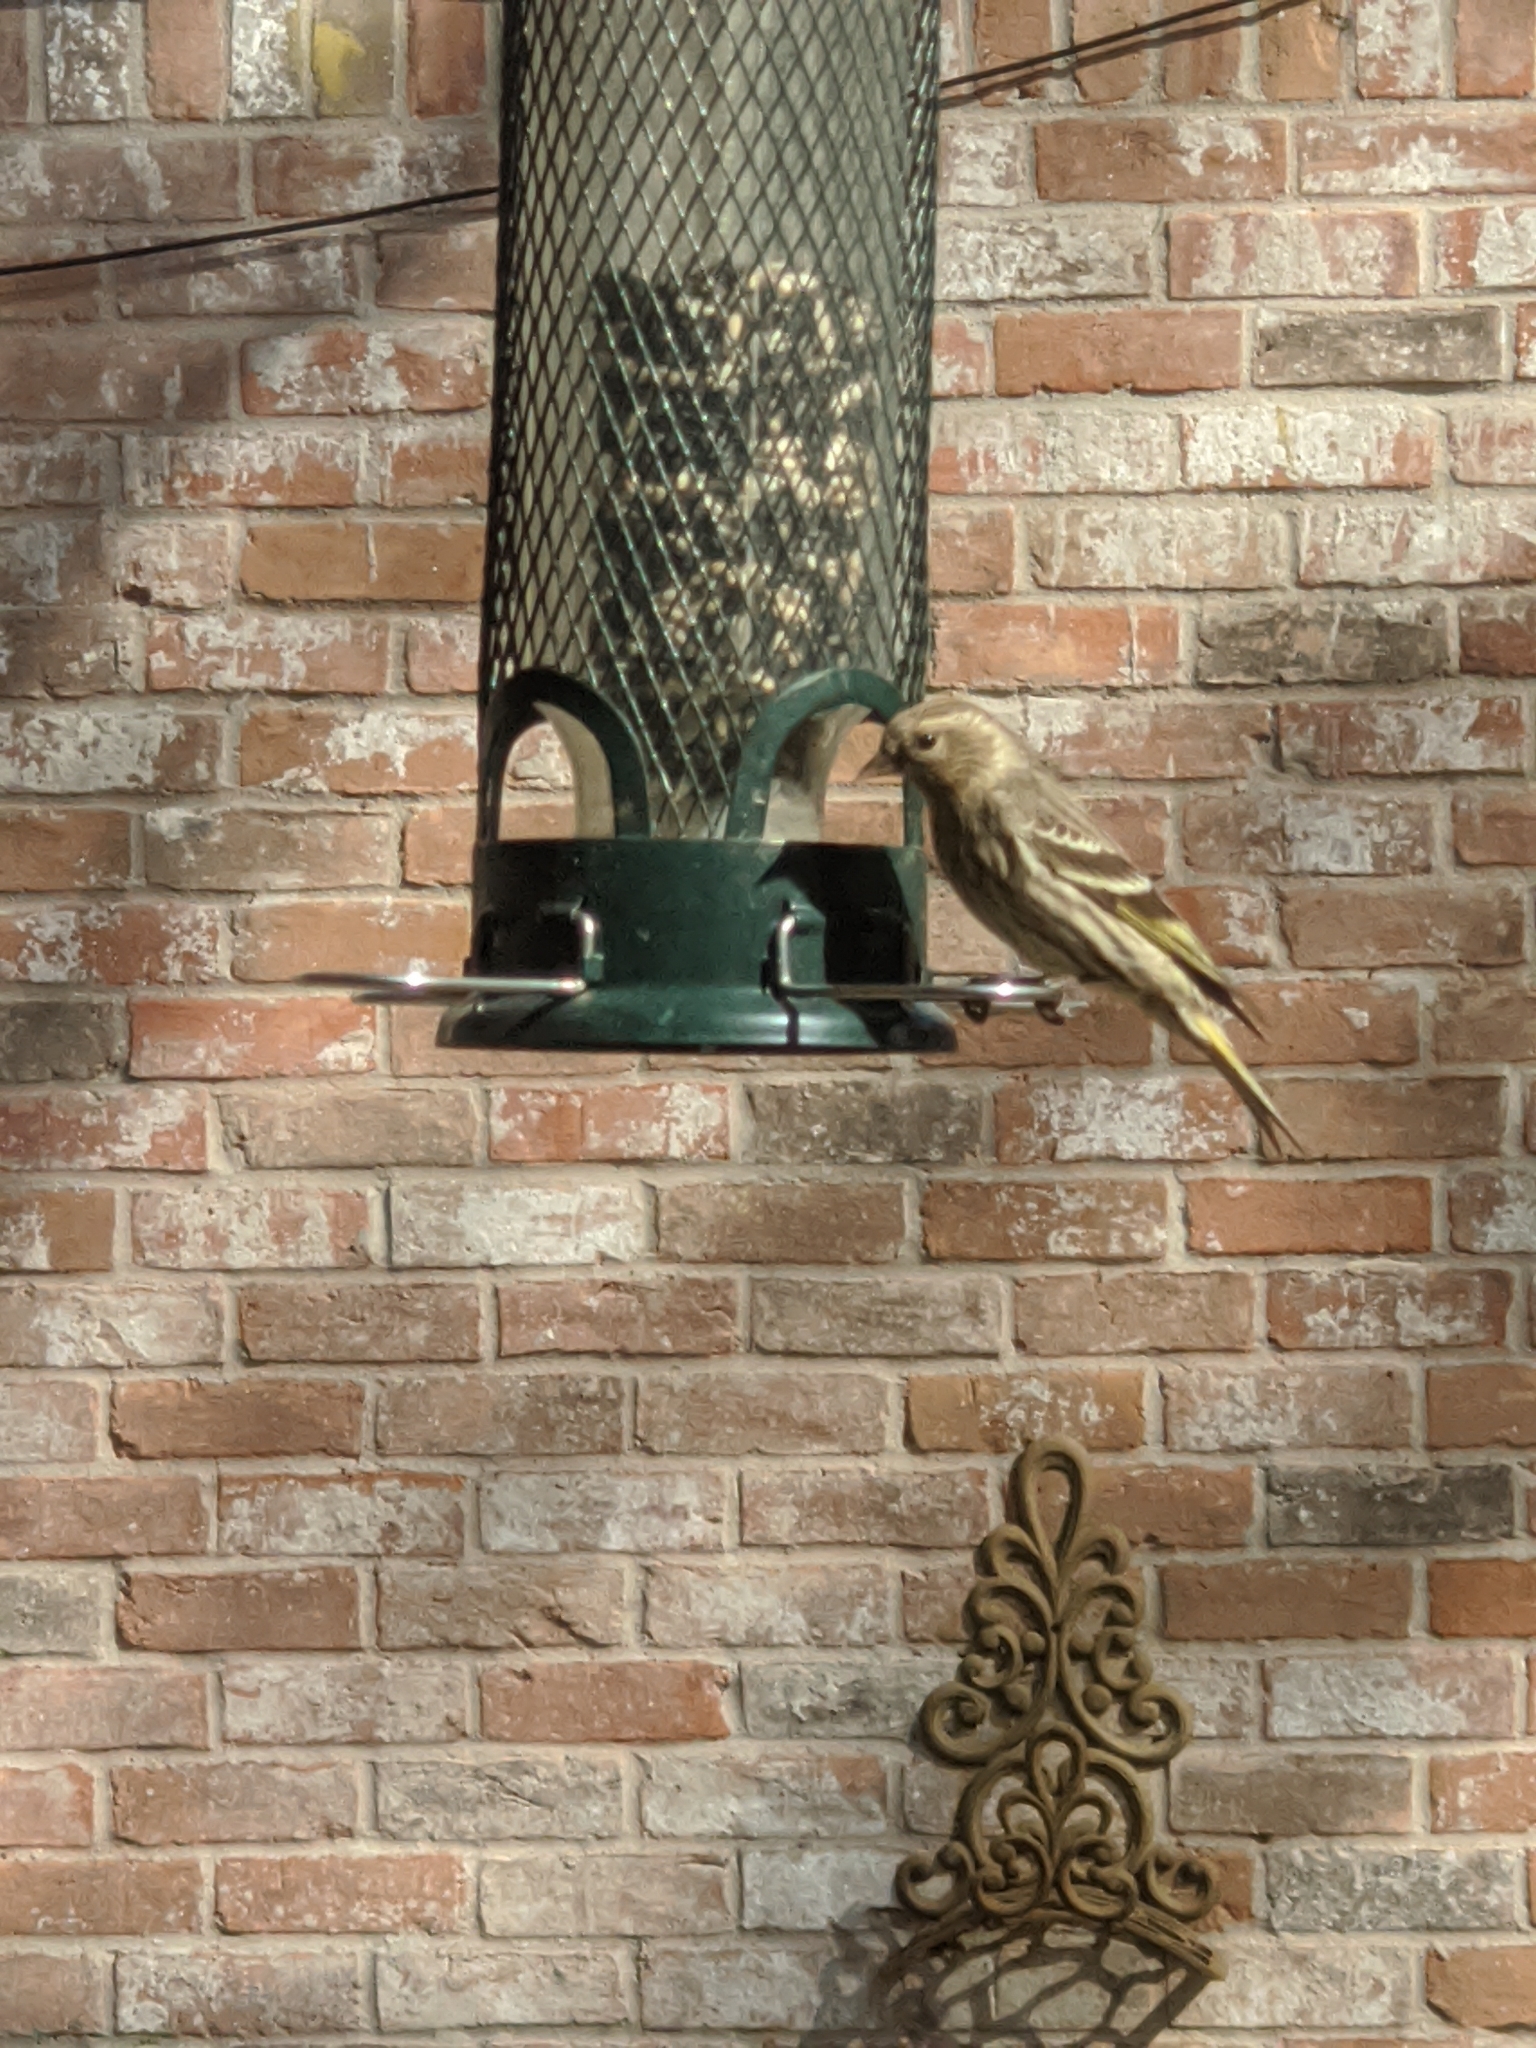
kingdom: Animalia
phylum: Chordata
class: Aves
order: Passeriformes
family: Fringillidae
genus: Spinus
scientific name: Spinus pinus
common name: Pine siskin
